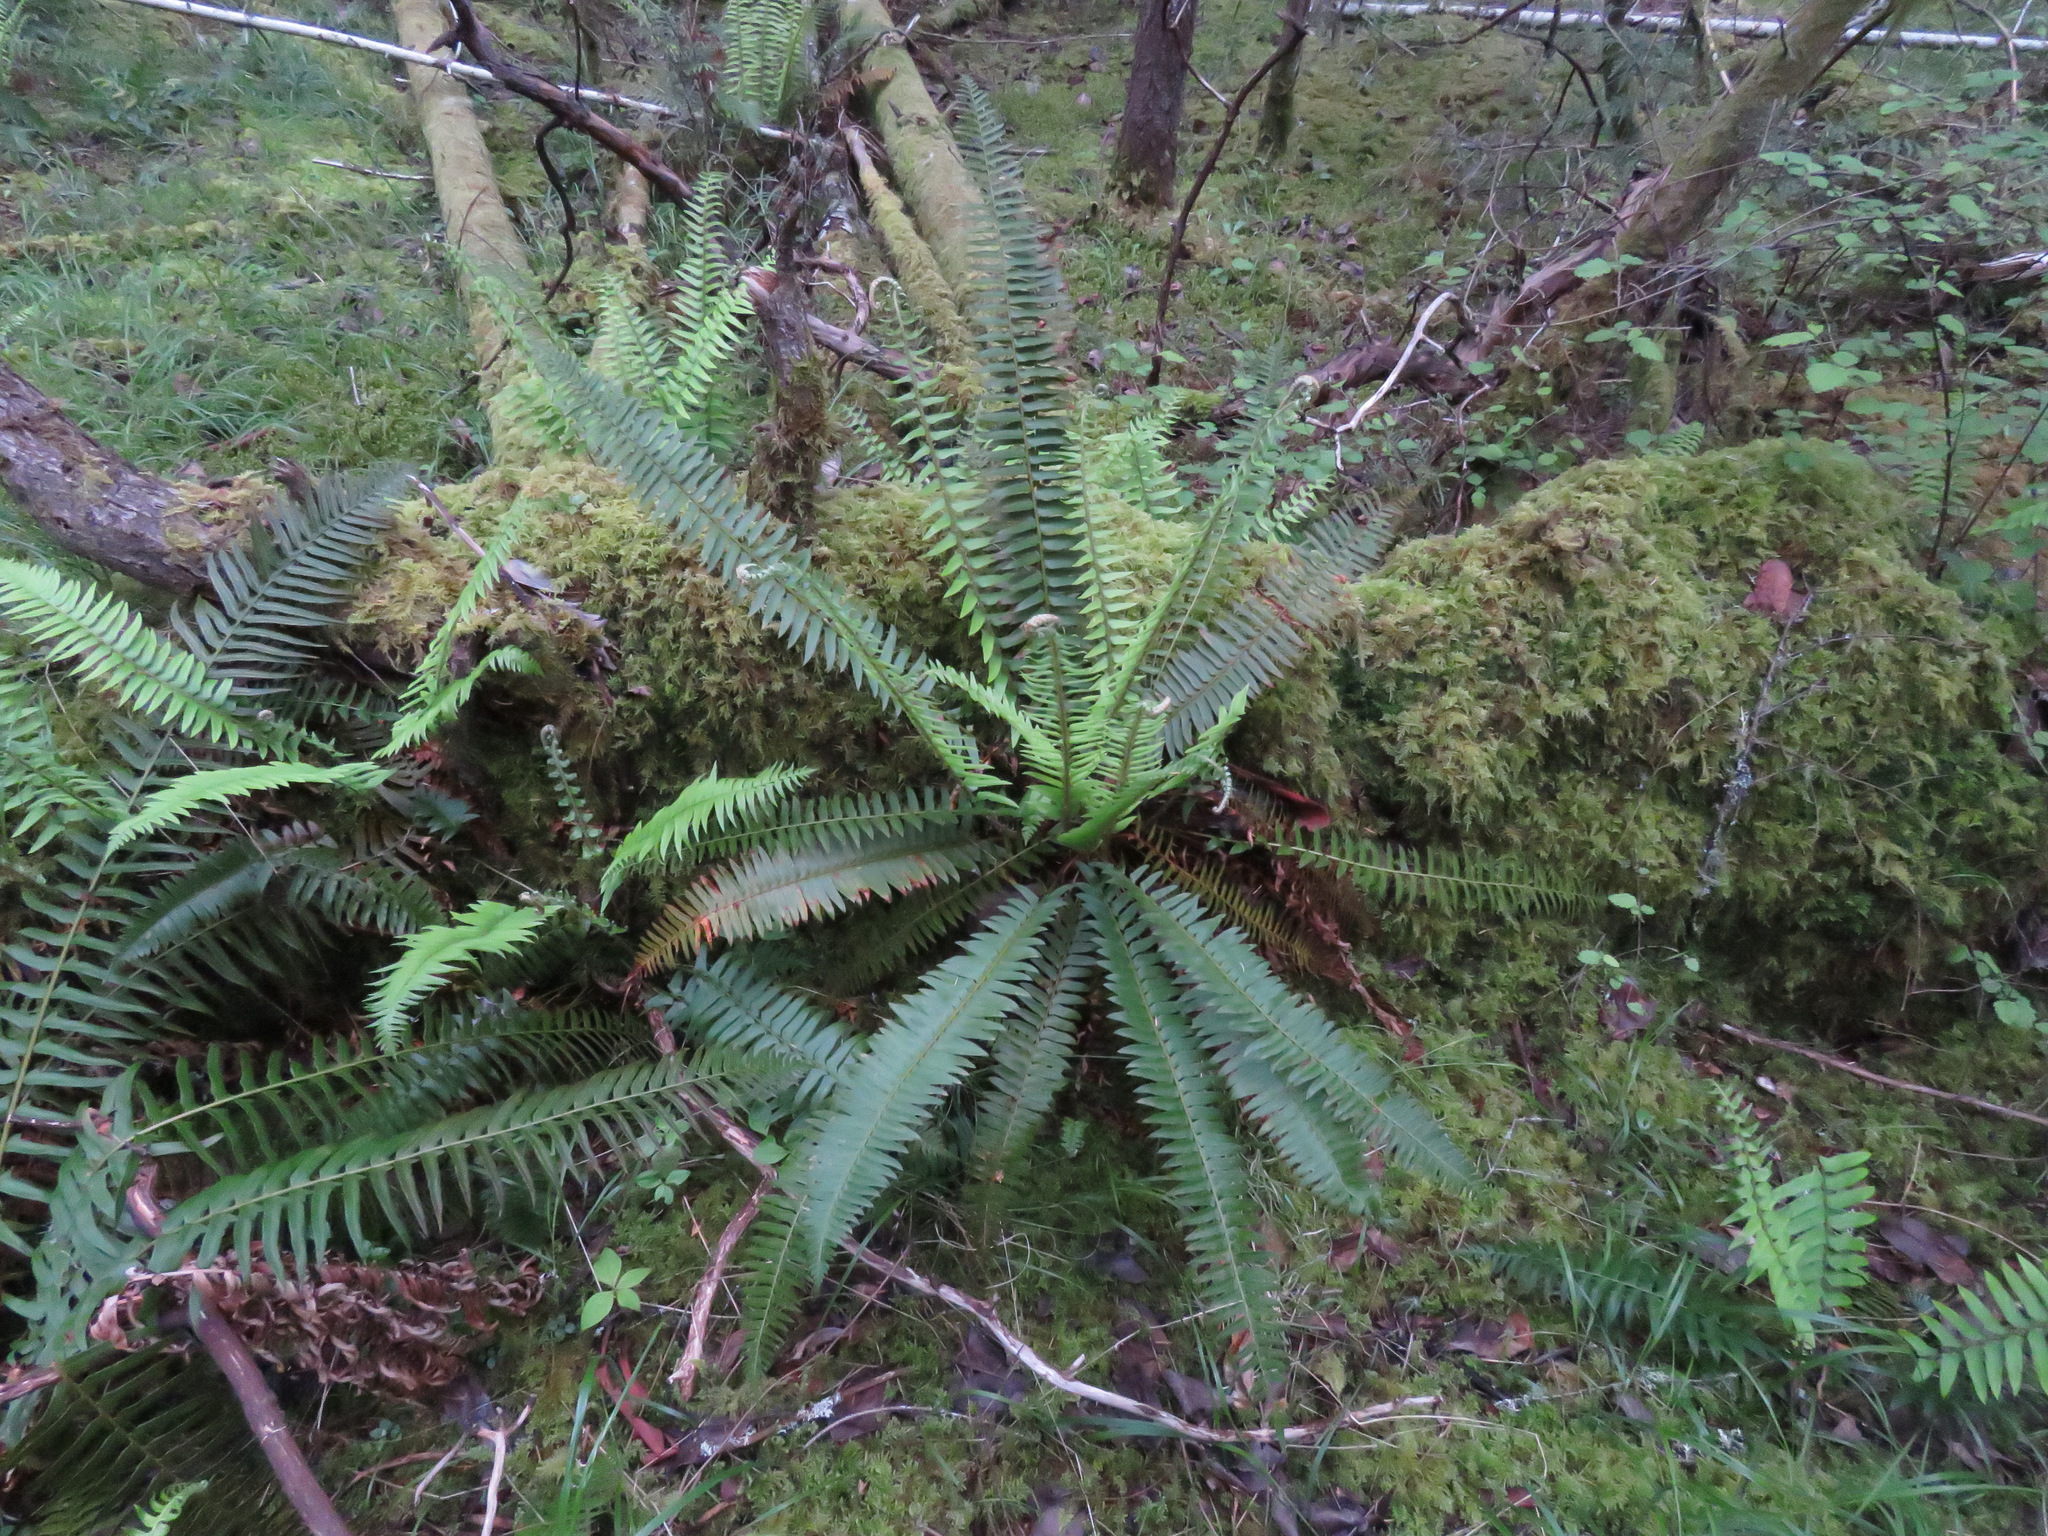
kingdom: Plantae
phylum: Tracheophyta
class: Polypodiopsida
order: Polypodiales
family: Dryopteridaceae
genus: Polystichum
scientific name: Polystichum munitum
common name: Western sword-fern
